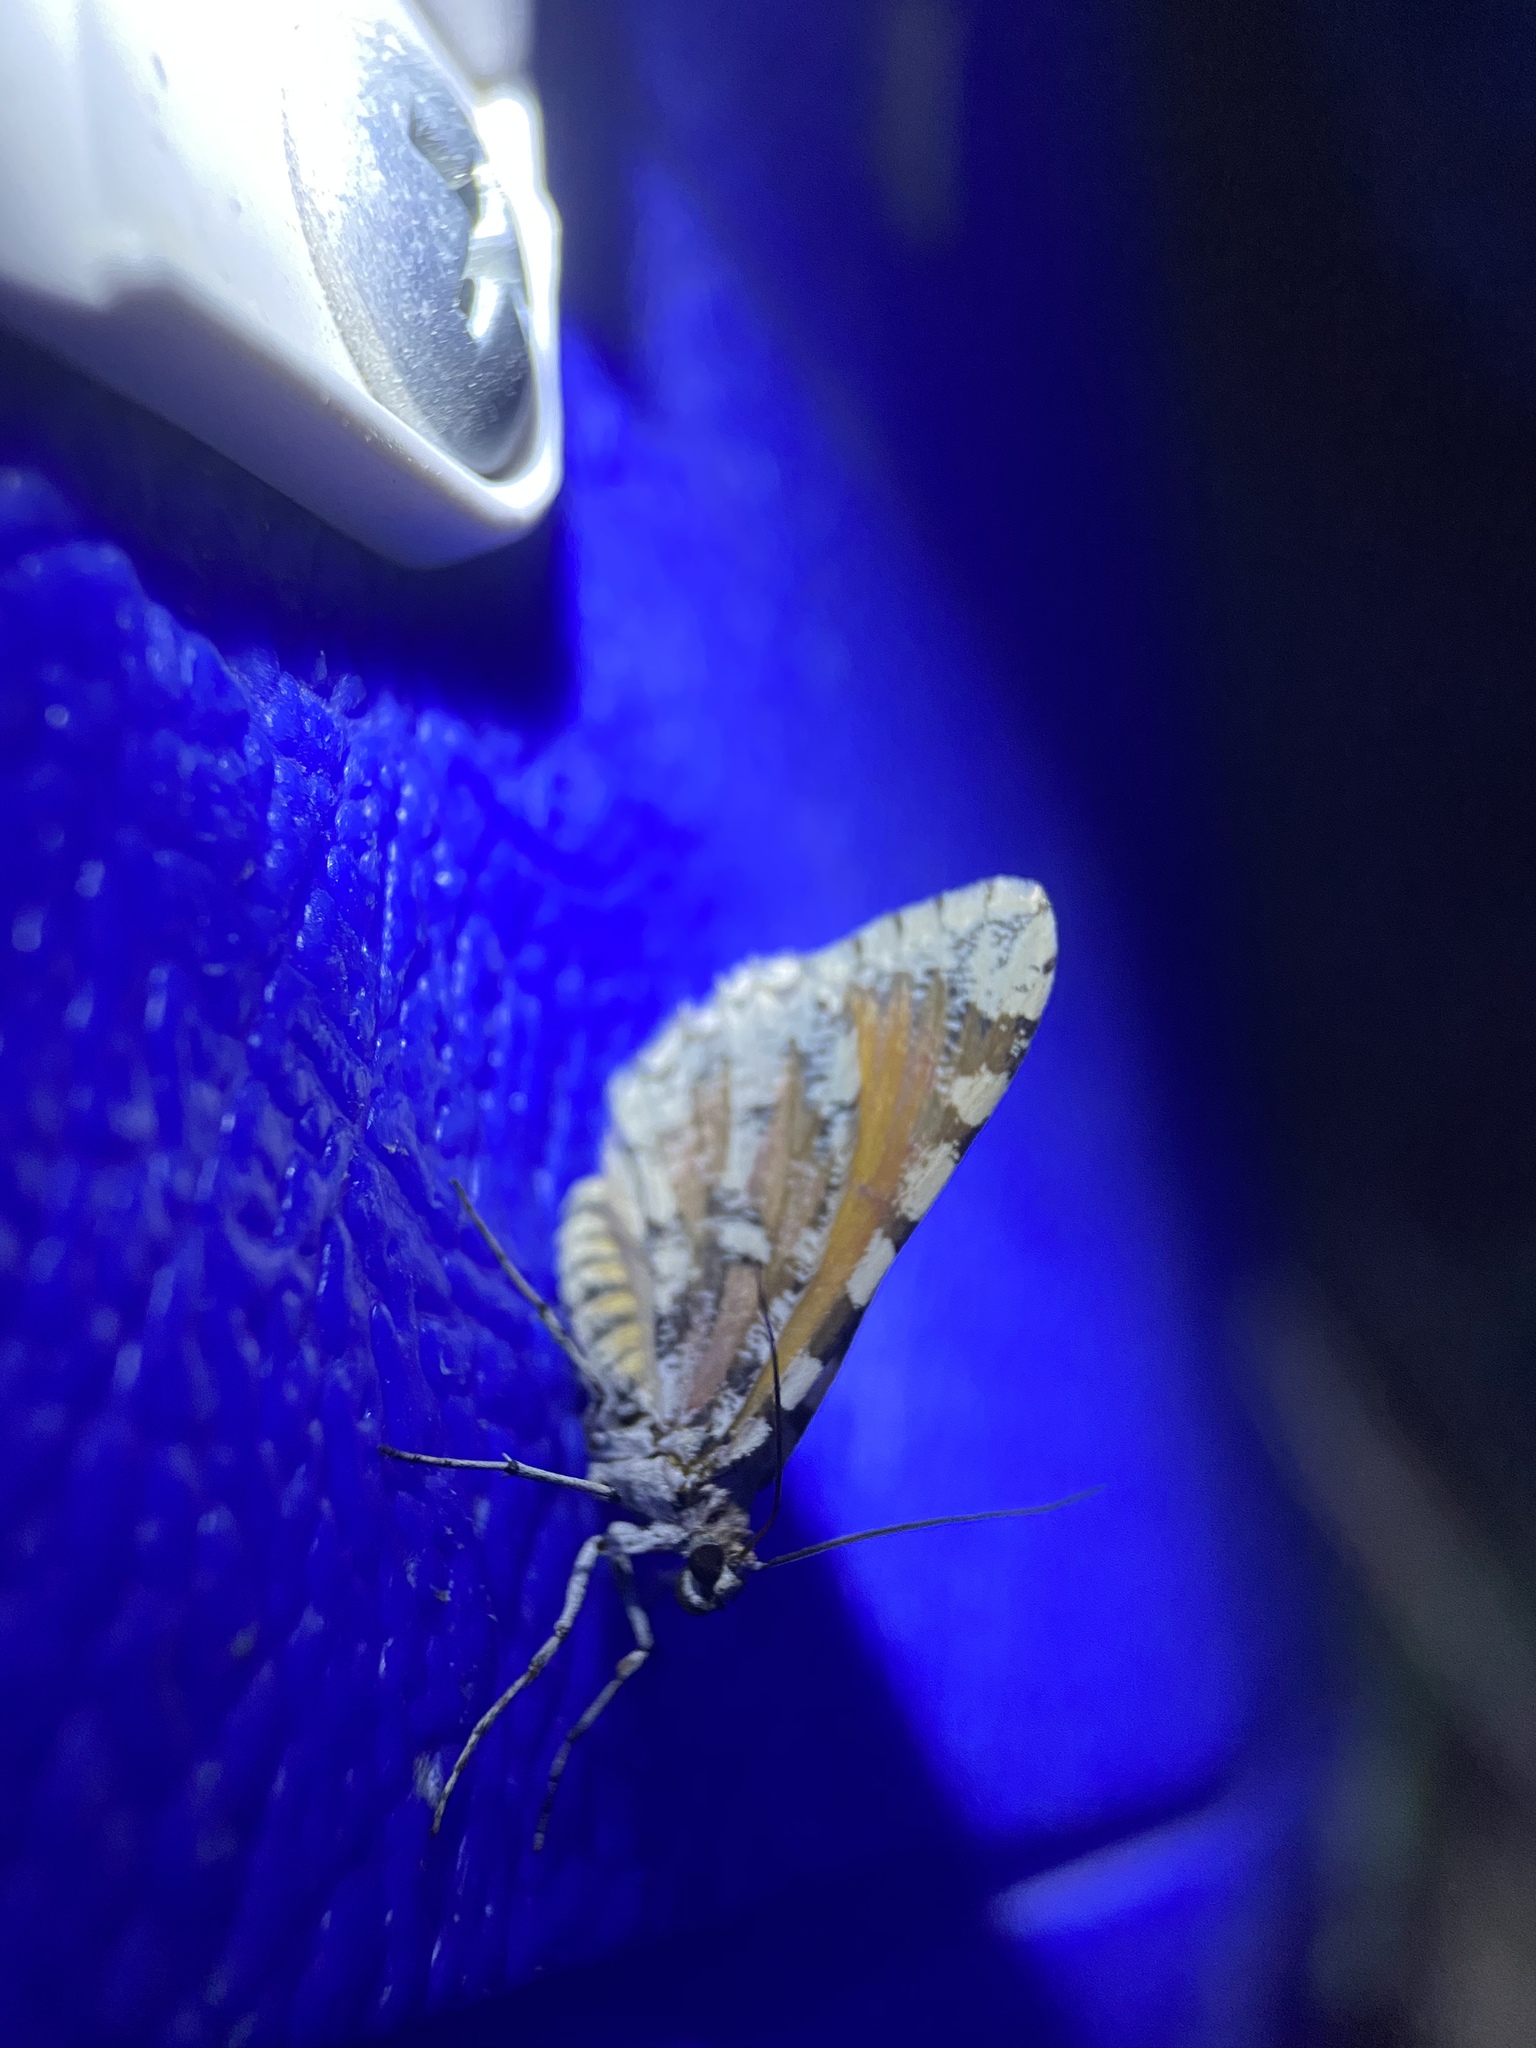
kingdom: Animalia
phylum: Arthropoda
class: Insecta
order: Lepidoptera
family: Geometridae
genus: Stamnodes
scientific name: Stamnodes tessellata
